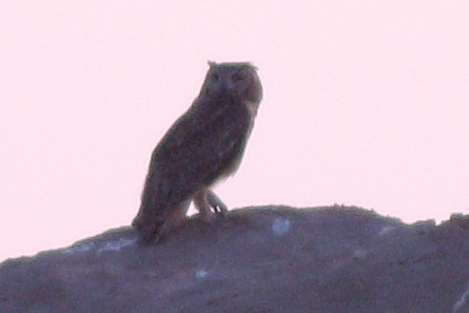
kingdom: Animalia
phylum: Chordata
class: Aves
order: Strigiformes
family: Strigidae
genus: Bubo
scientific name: Bubo ascalaphus
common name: Pharaoh eagle-owl
